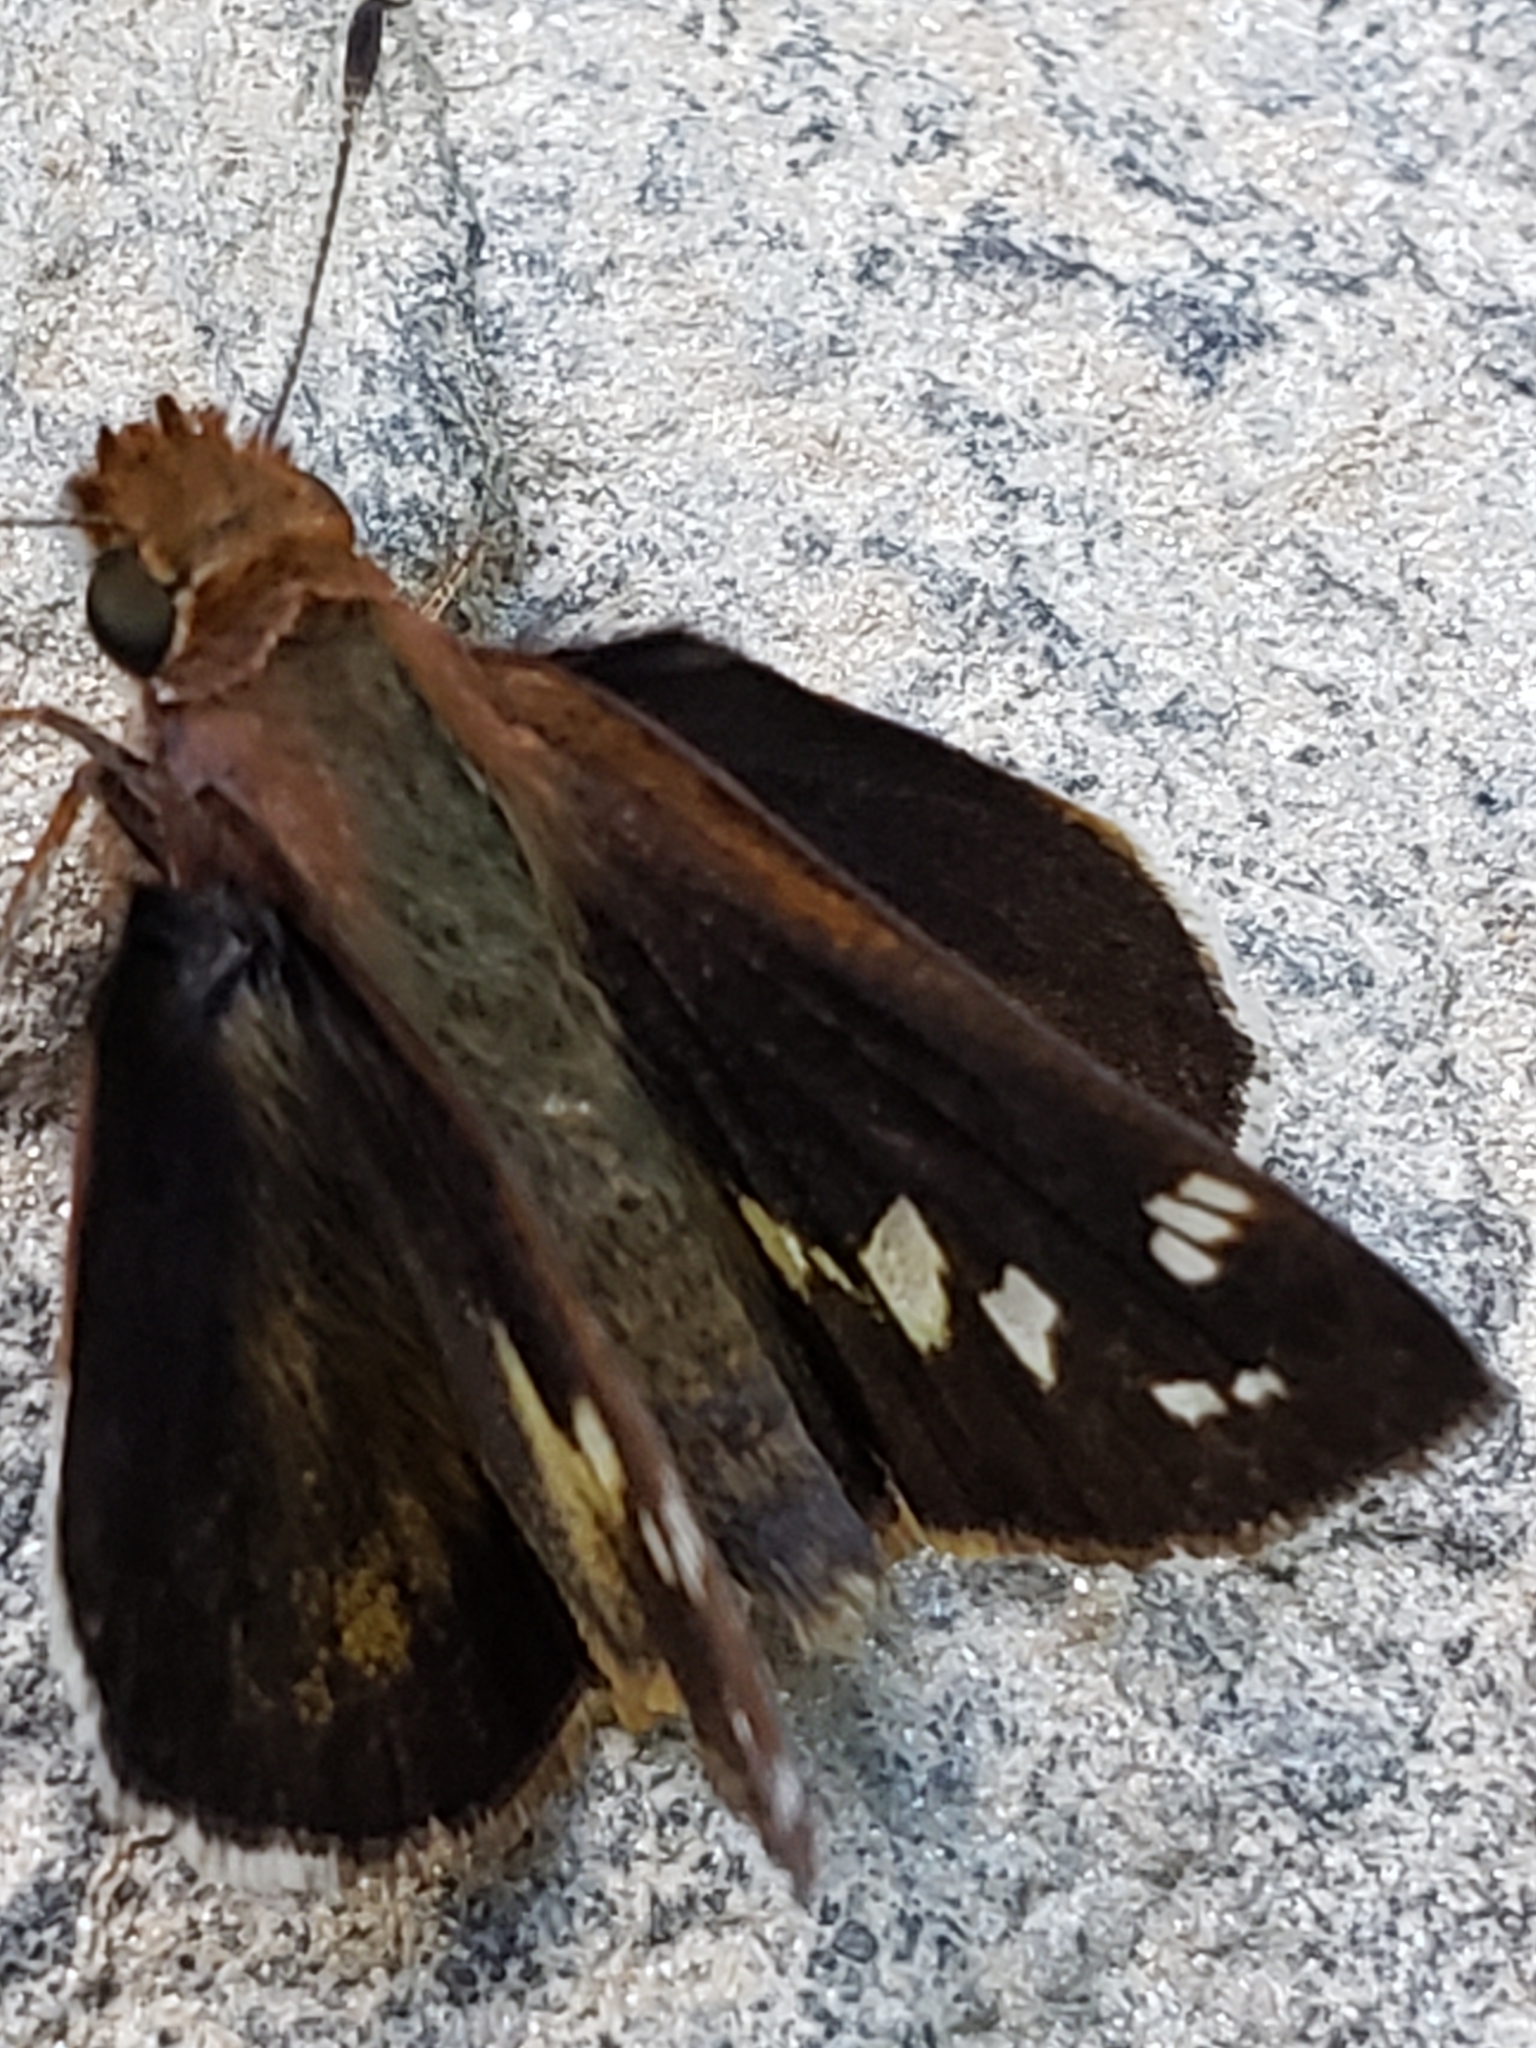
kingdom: Animalia
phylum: Arthropoda
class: Insecta
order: Lepidoptera
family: Hesperiidae
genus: Lon
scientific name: Lon zabulon
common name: Zabulon skipper
